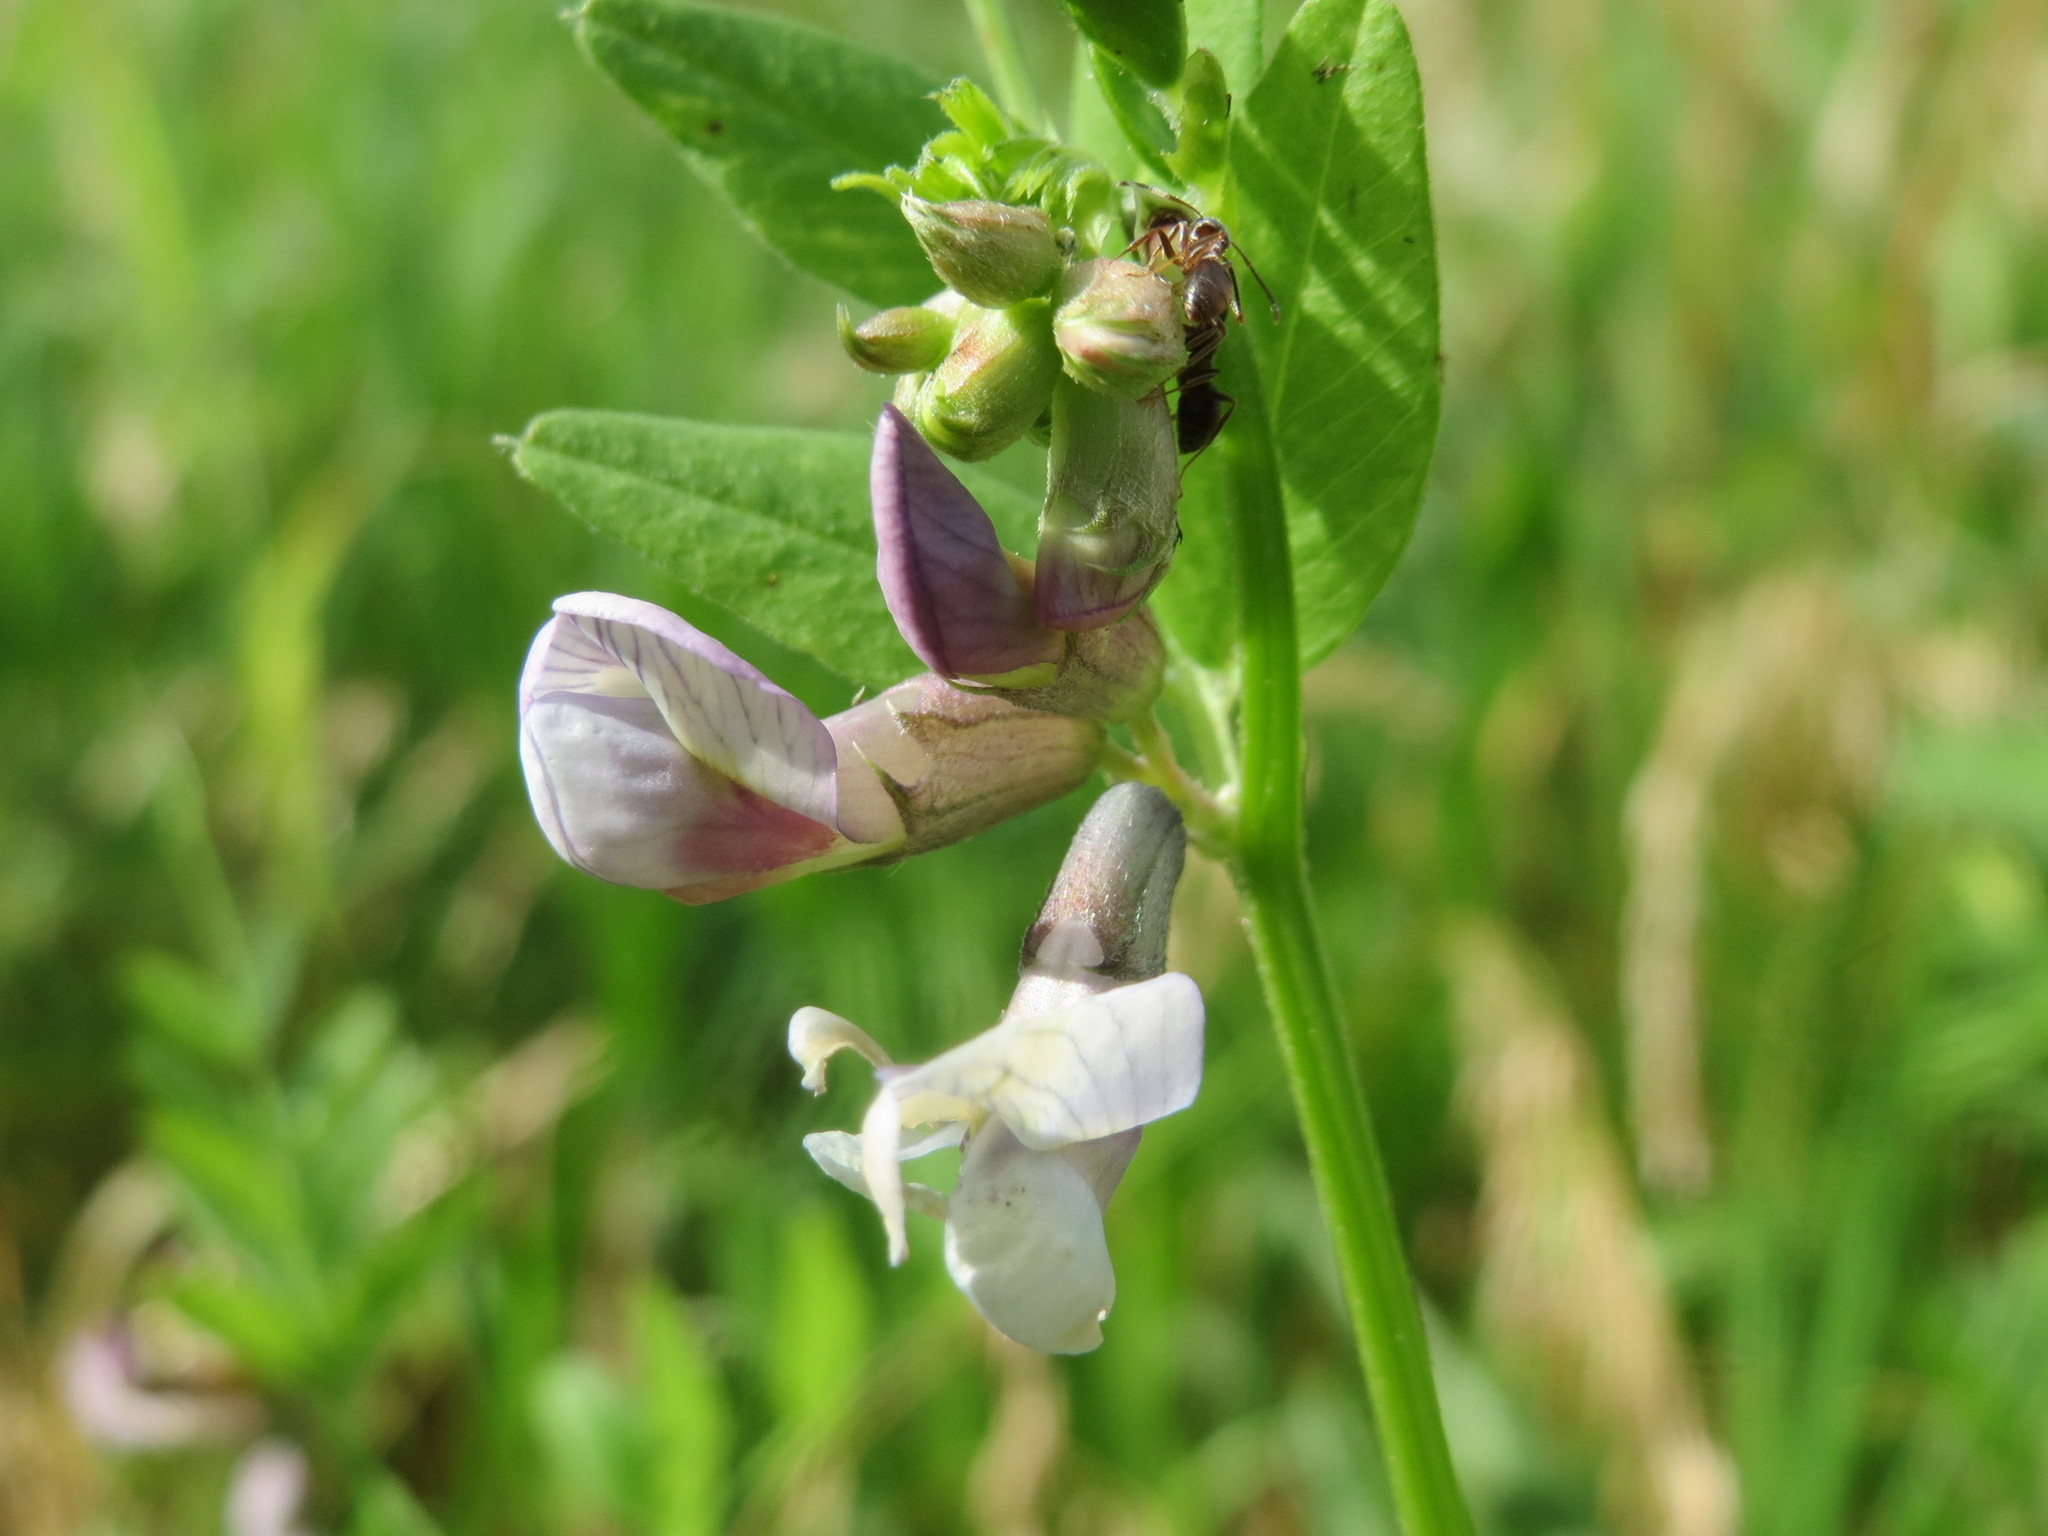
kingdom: Plantae
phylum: Tracheophyta
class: Magnoliopsida
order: Fabales
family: Fabaceae
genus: Vicia
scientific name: Vicia sepium
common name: Bush vetch
